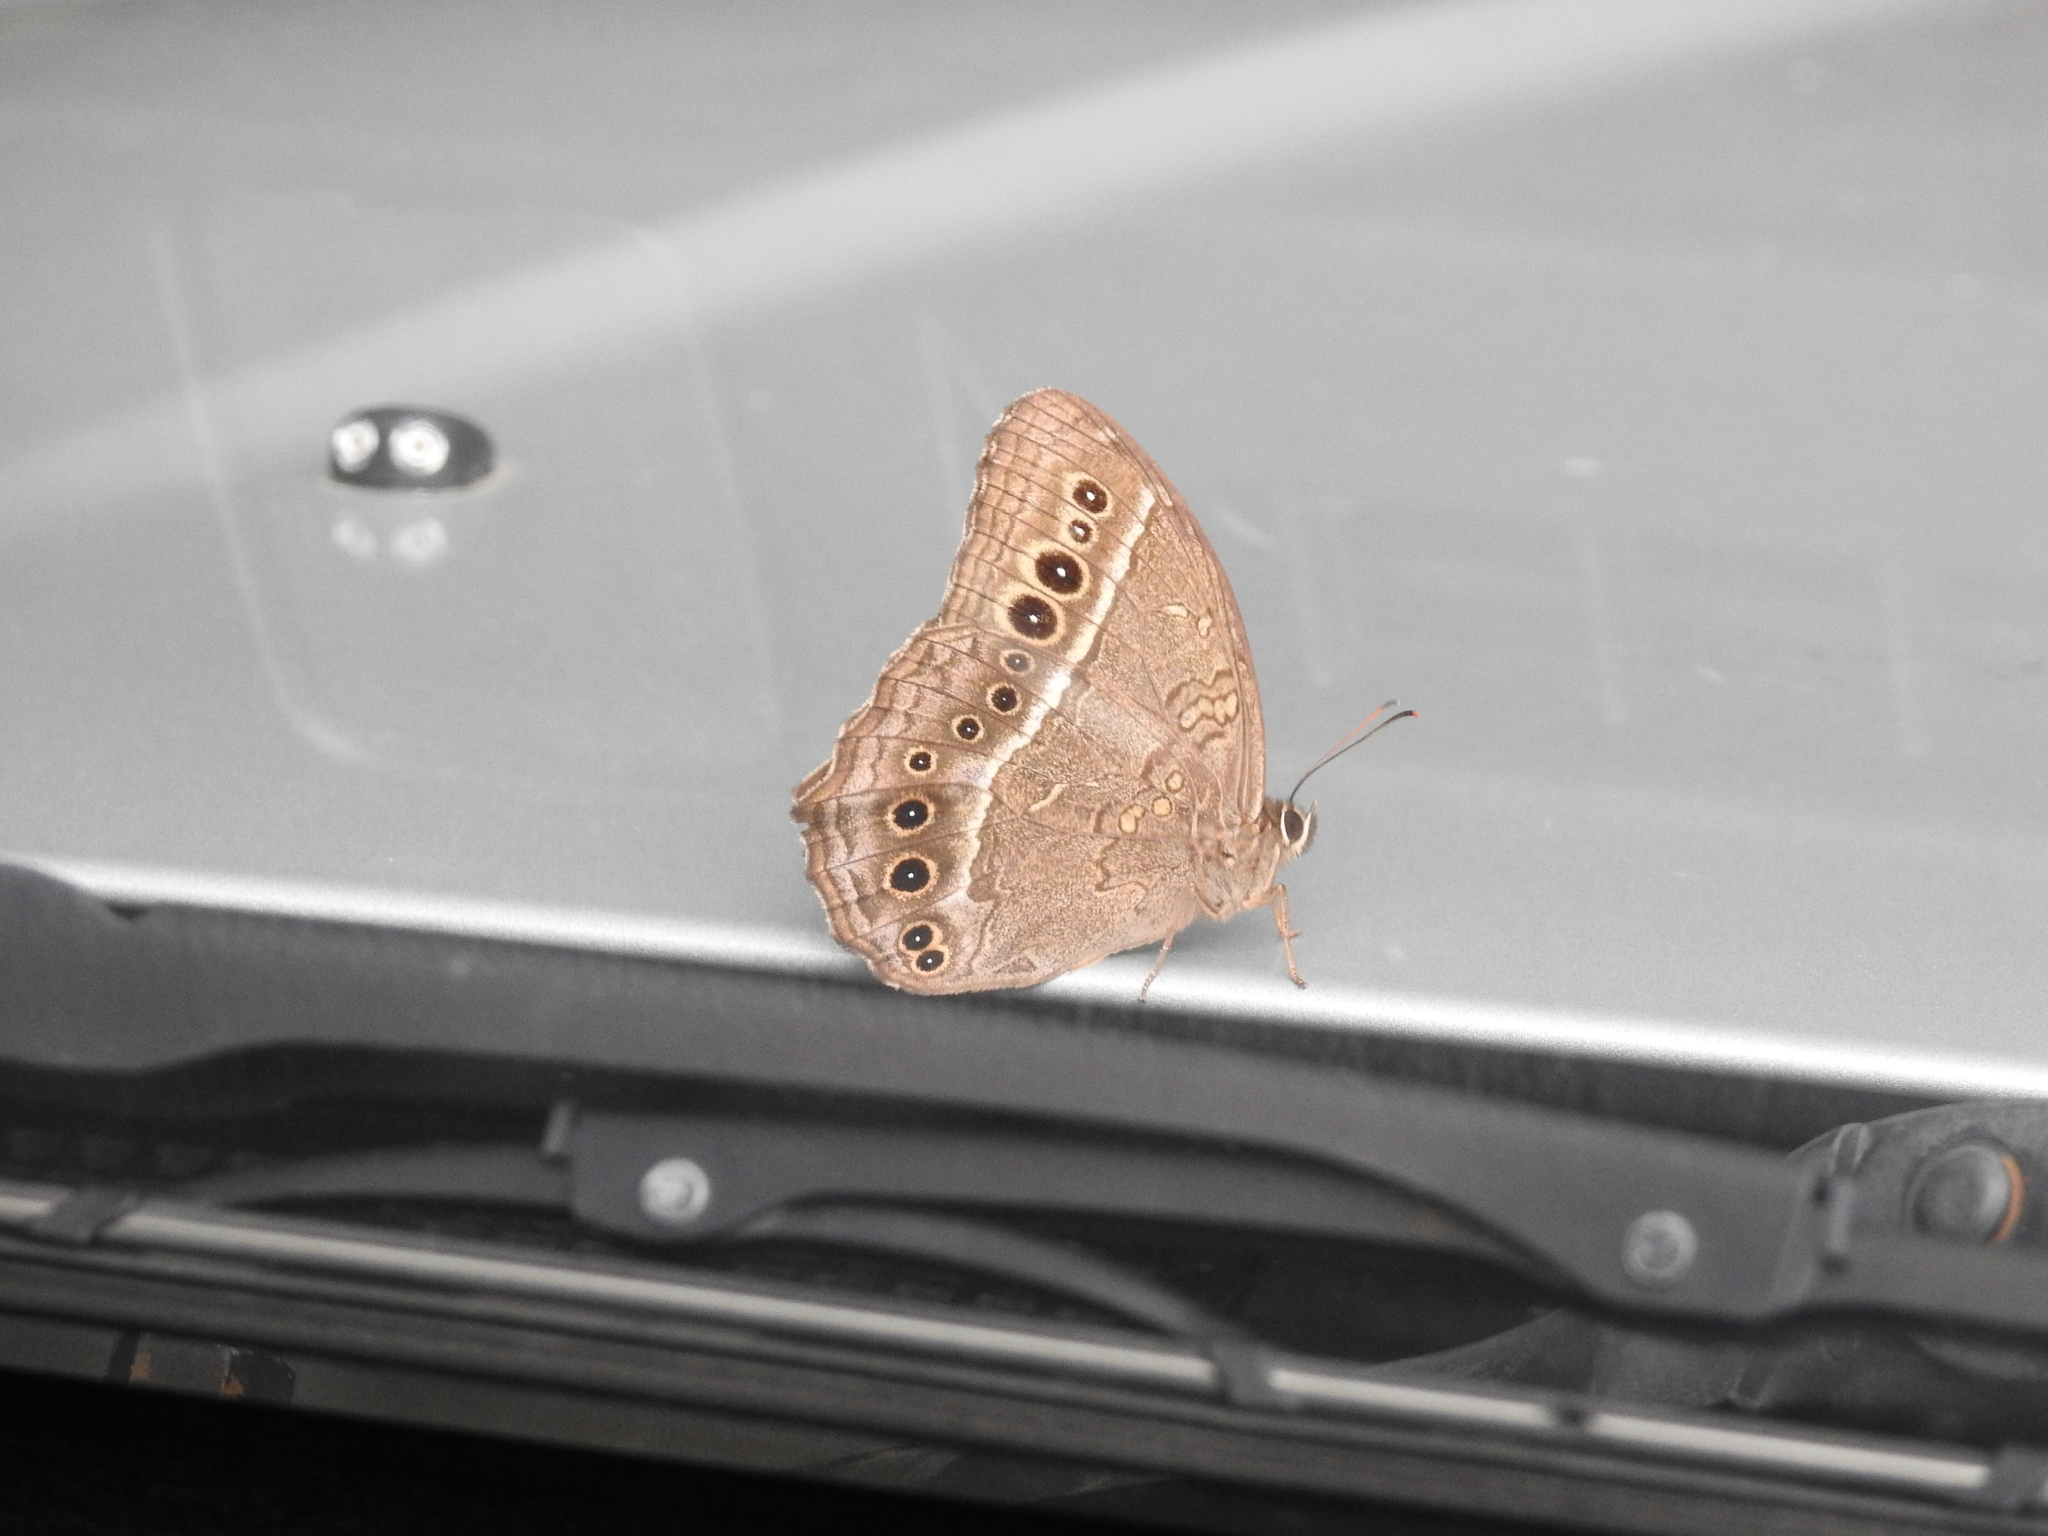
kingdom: Animalia
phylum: Arthropoda
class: Insecta
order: Lepidoptera
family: Nymphalidae
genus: Neope
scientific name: Neope muirheadii
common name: Black-spotted labyrinth
